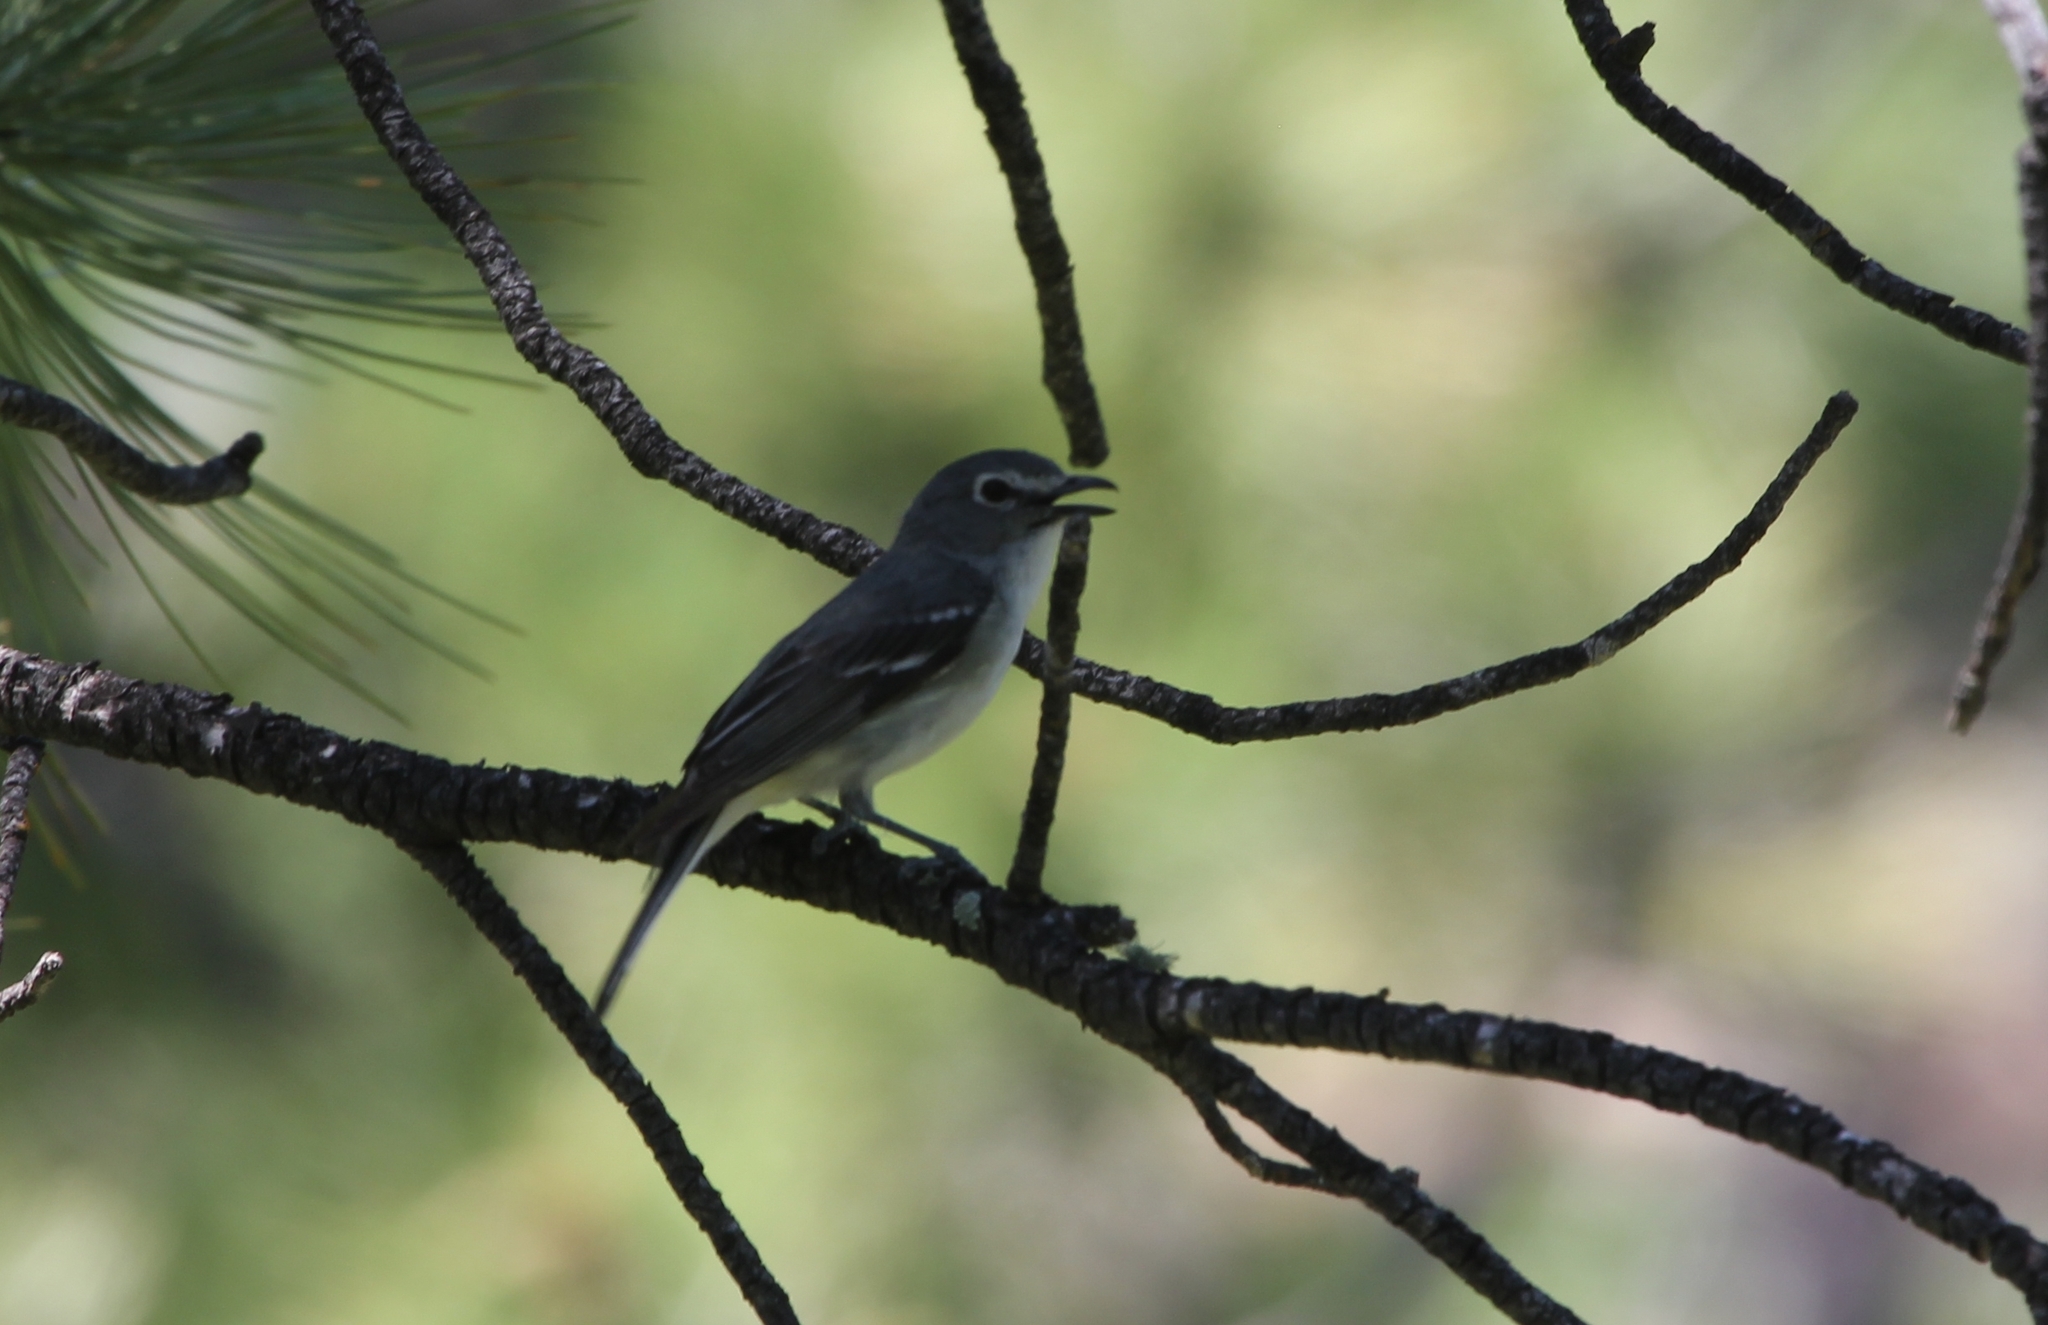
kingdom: Animalia
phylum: Chordata
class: Aves
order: Passeriformes
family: Vireonidae
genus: Vireo
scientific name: Vireo plumbeus
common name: Plumbeous vireo
